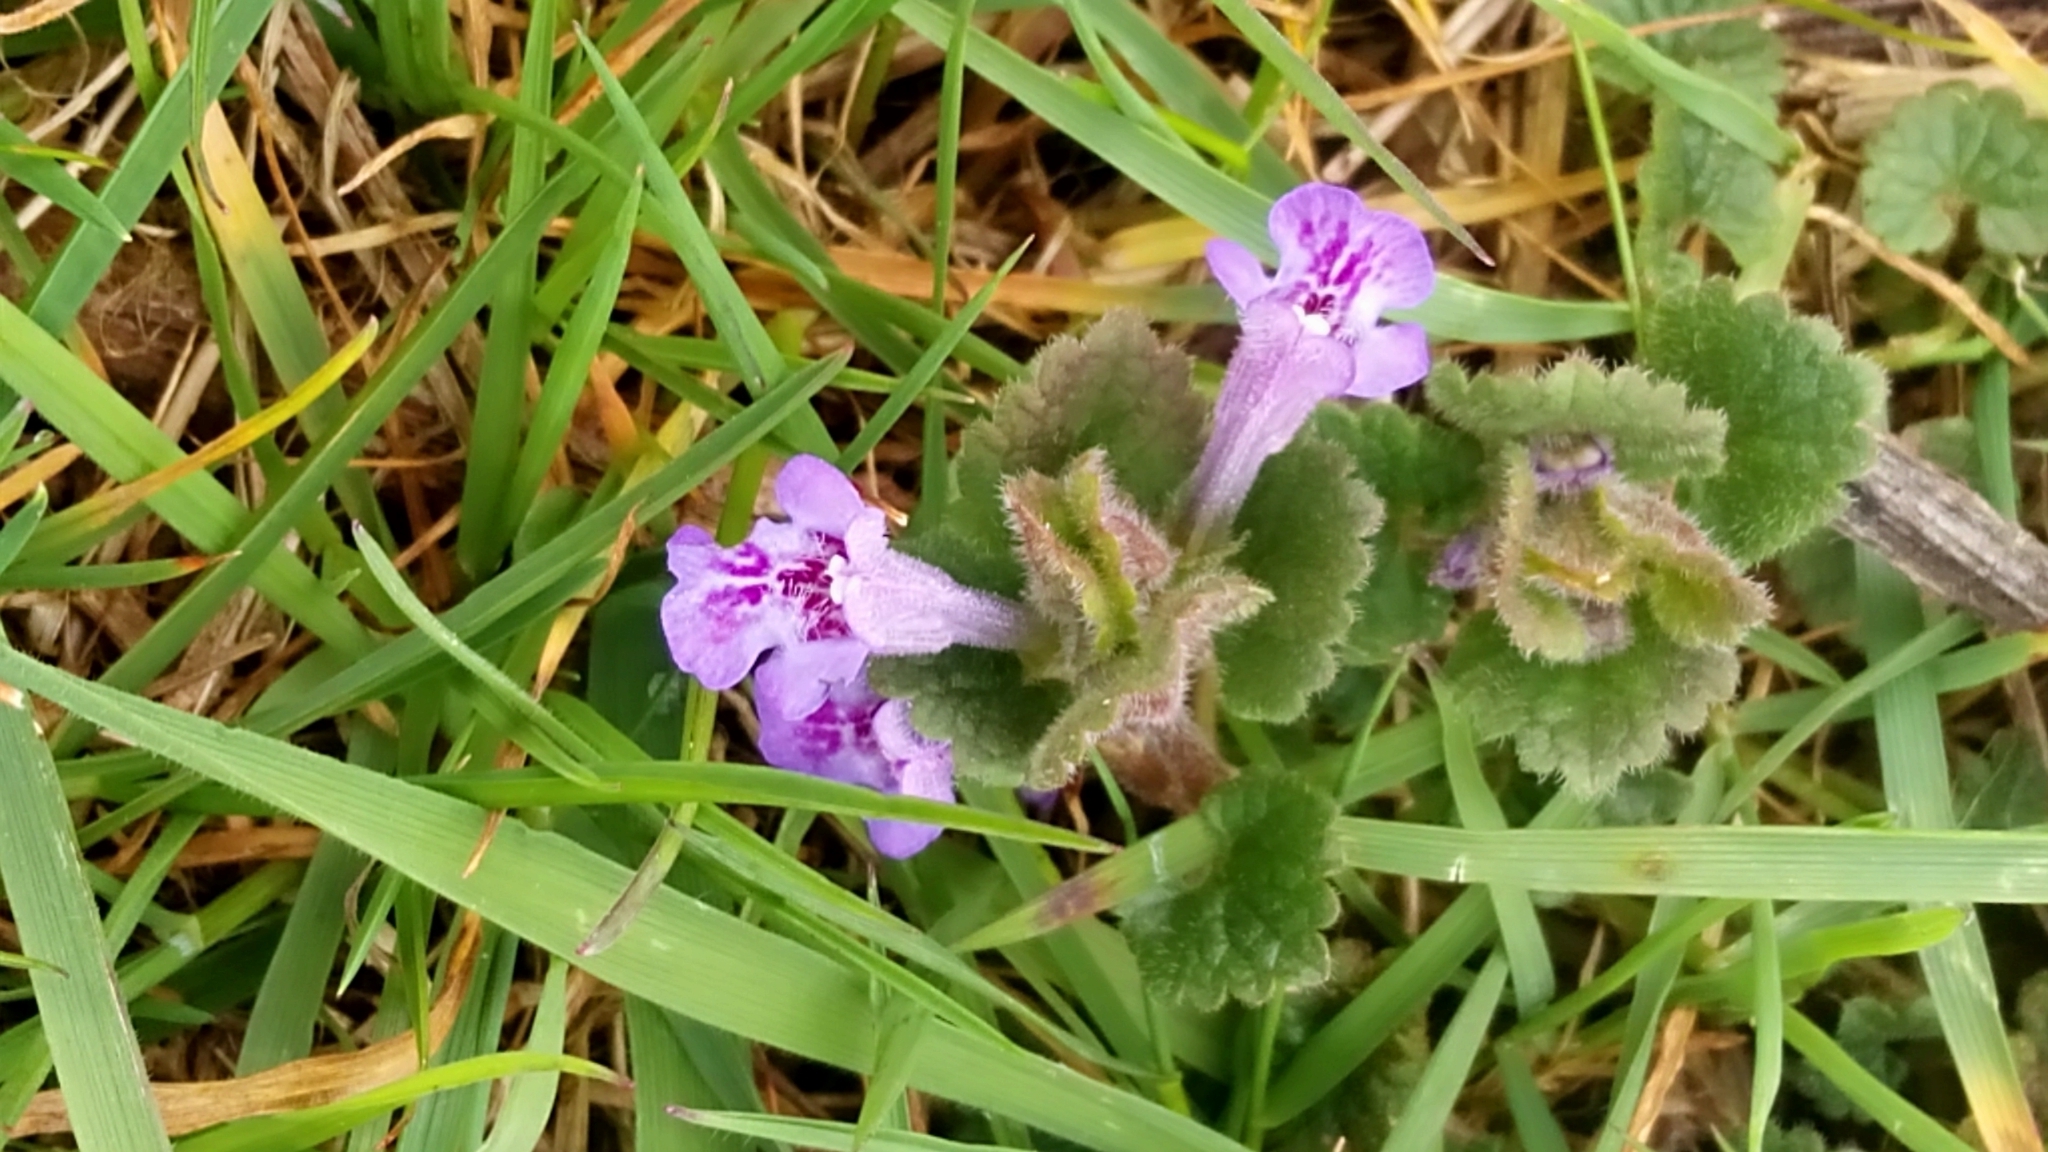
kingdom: Plantae
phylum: Tracheophyta
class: Magnoliopsida
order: Lamiales
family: Lamiaceae
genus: Glechoma
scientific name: Glechoma hederacea
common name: Ground ivy
